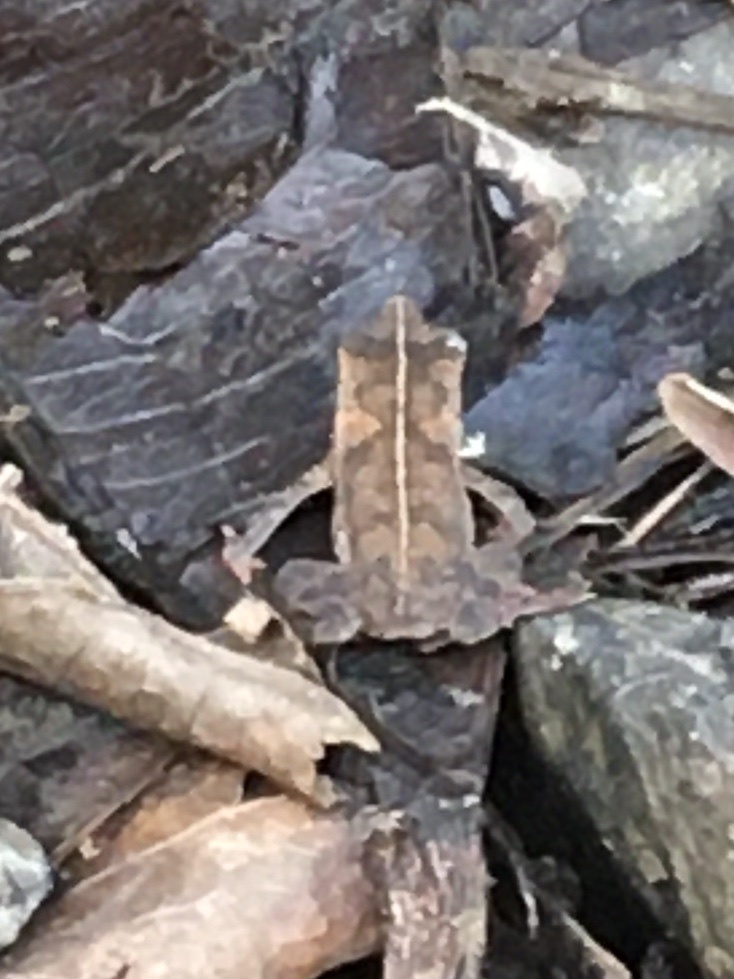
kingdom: Animalia
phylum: Chordata
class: Amphibia
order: Anura
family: Bufonidae
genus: Rhinella
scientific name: Rhinella alata
